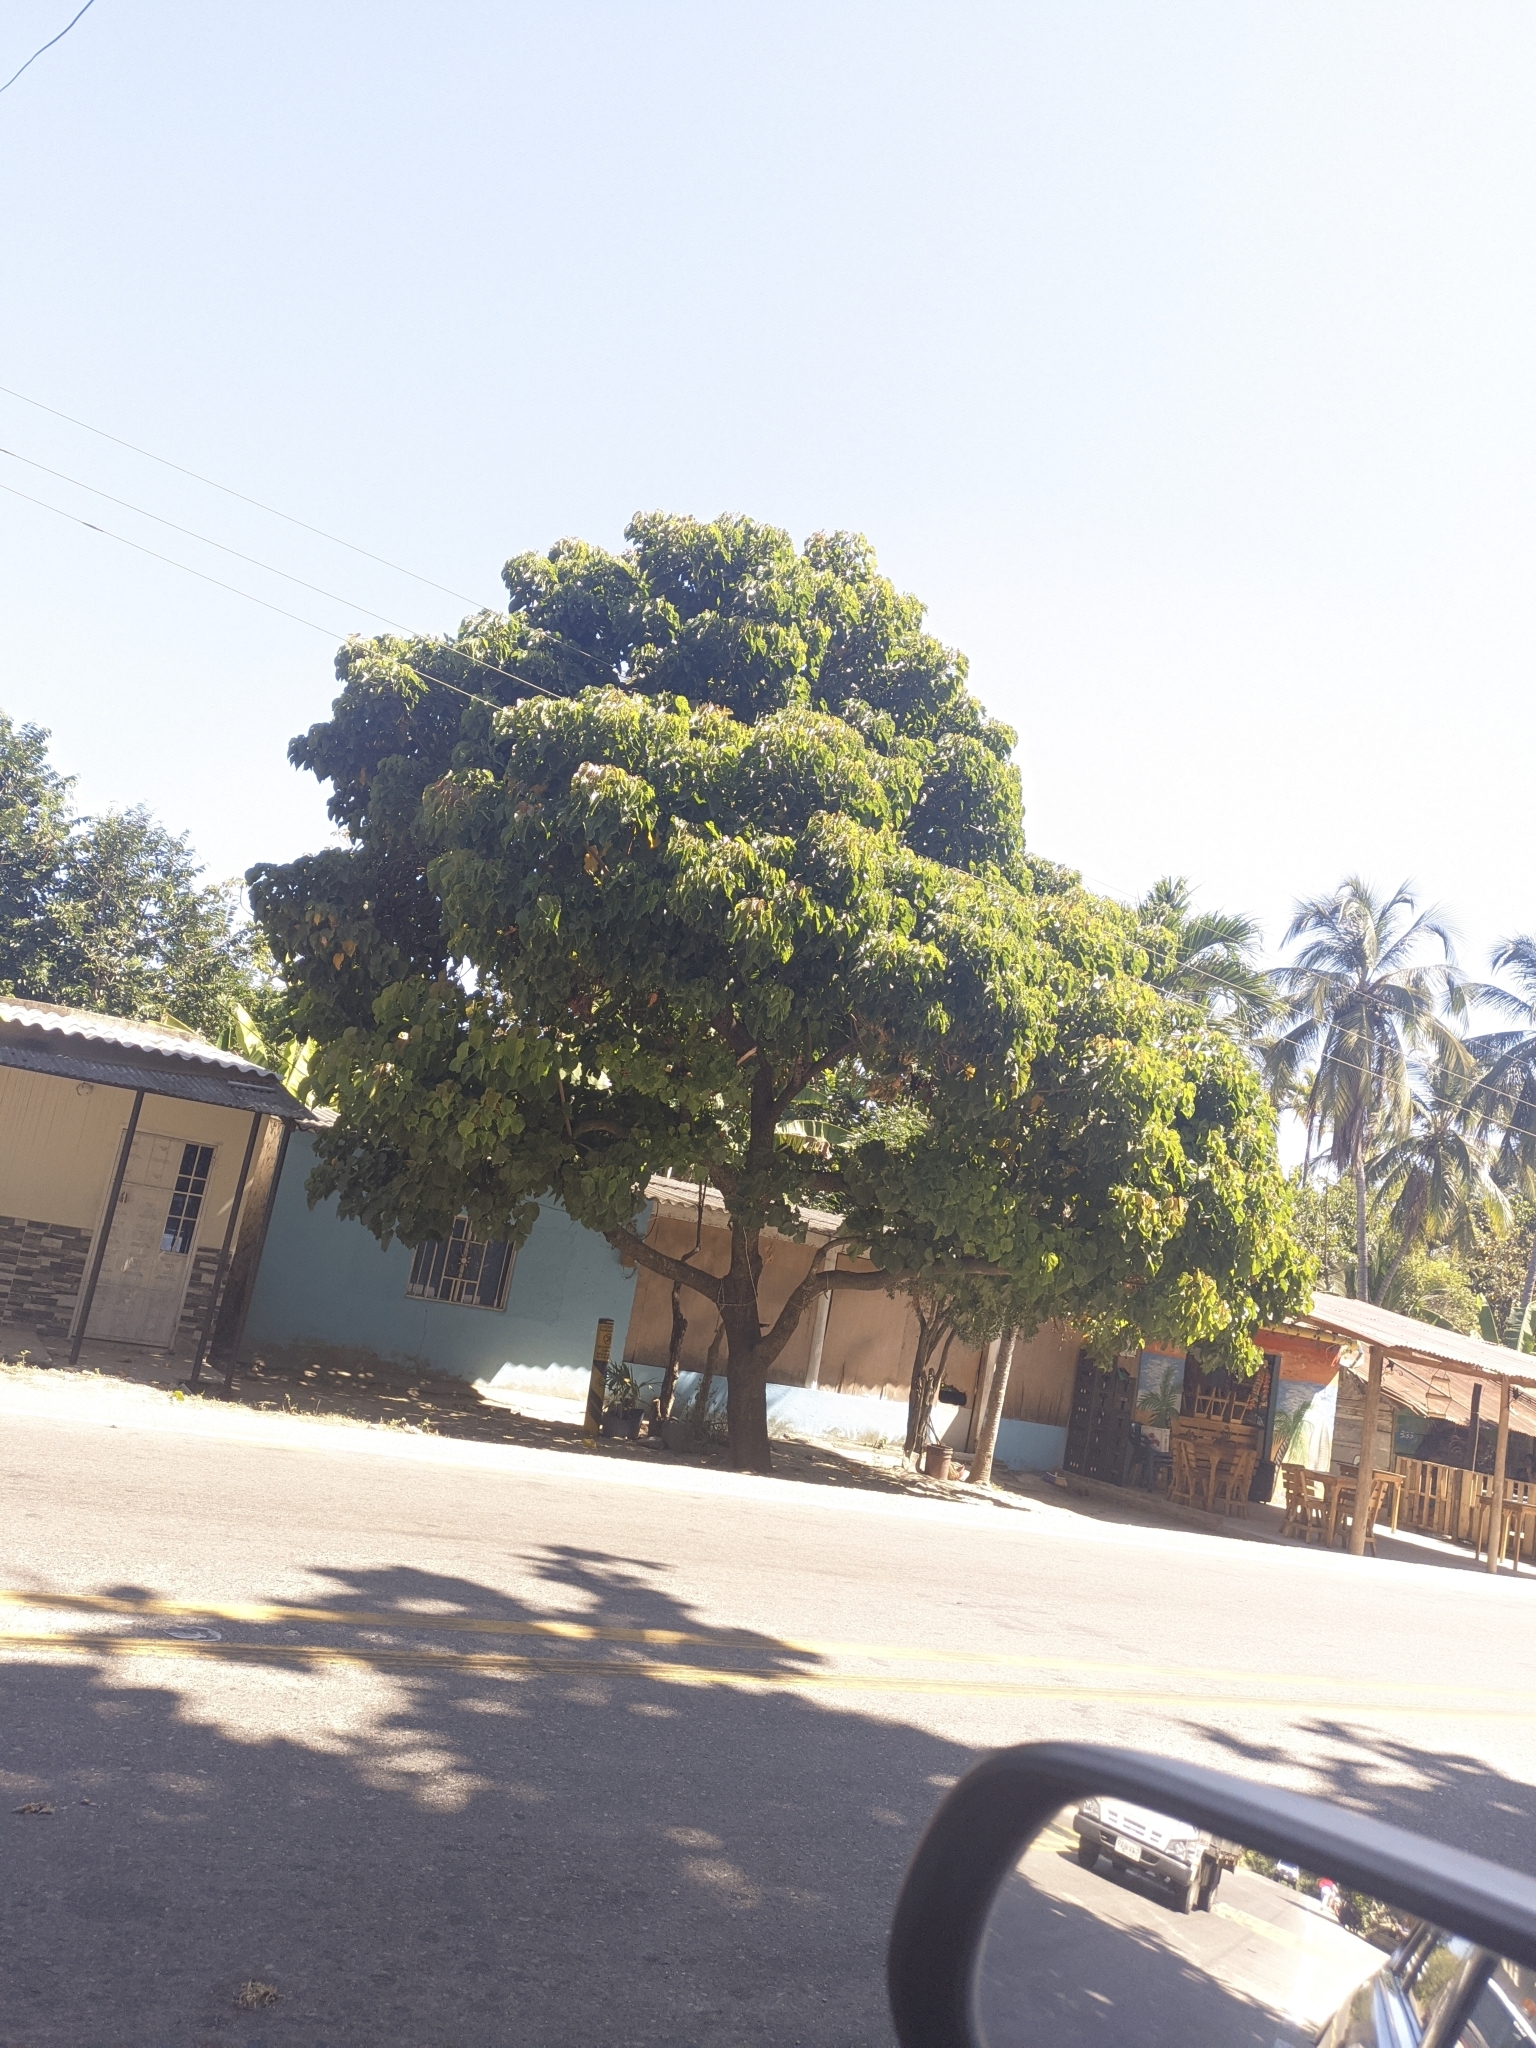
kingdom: Plantae
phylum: Tracheophyta
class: Magnoliopsida
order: Malpighiales
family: Euphorbiaceae
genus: Hura
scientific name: Hura crepitans
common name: Sandboxtree
